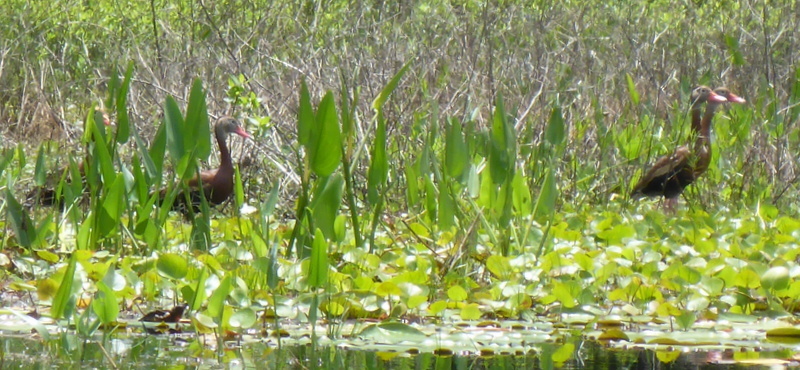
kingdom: Animalia
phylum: Chordata
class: Aves
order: Anseriformes
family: Anatidae
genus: Dendrocygna
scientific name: Dendrocygna autumnalis
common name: Black-bellied whistling duck
